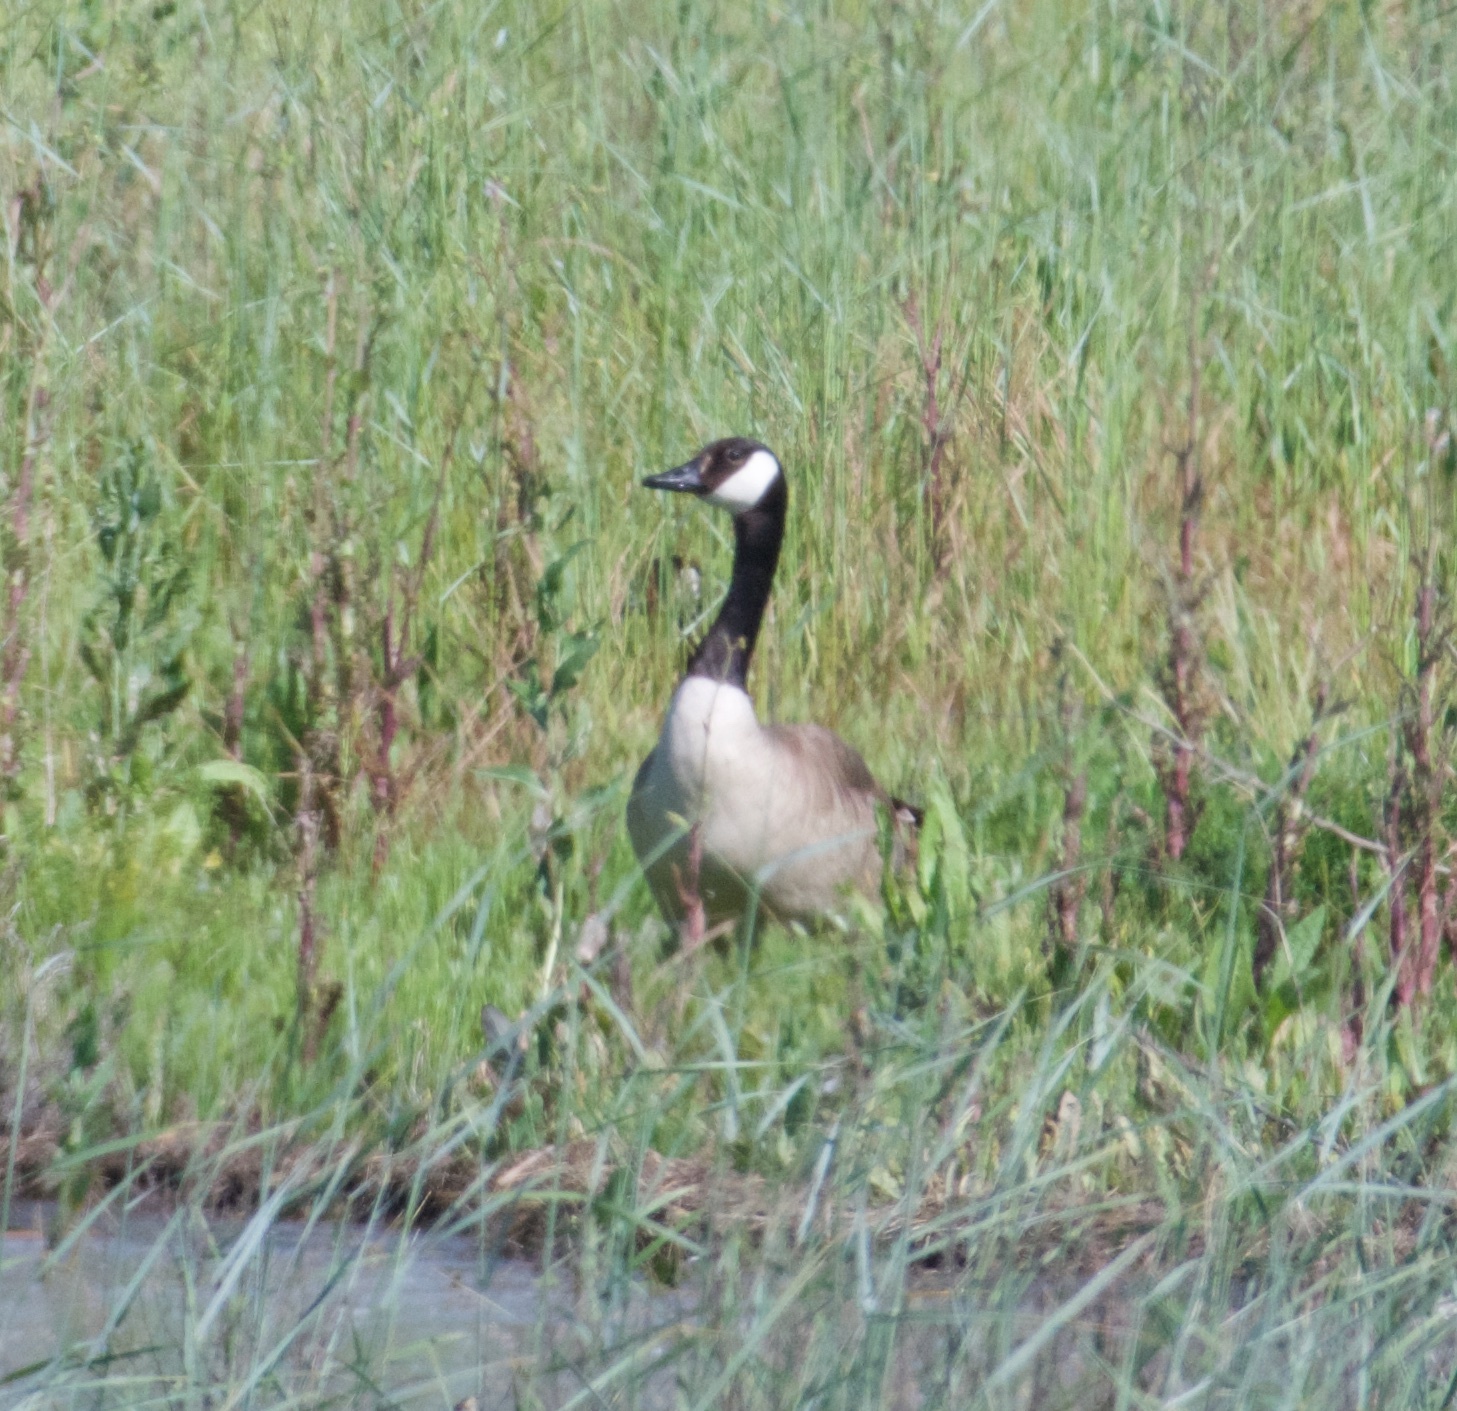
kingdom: Animalia
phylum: Chordata
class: Aves
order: Anseriformes
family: Anatidae
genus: Branta
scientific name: Branta canadensis
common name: Canada goose
